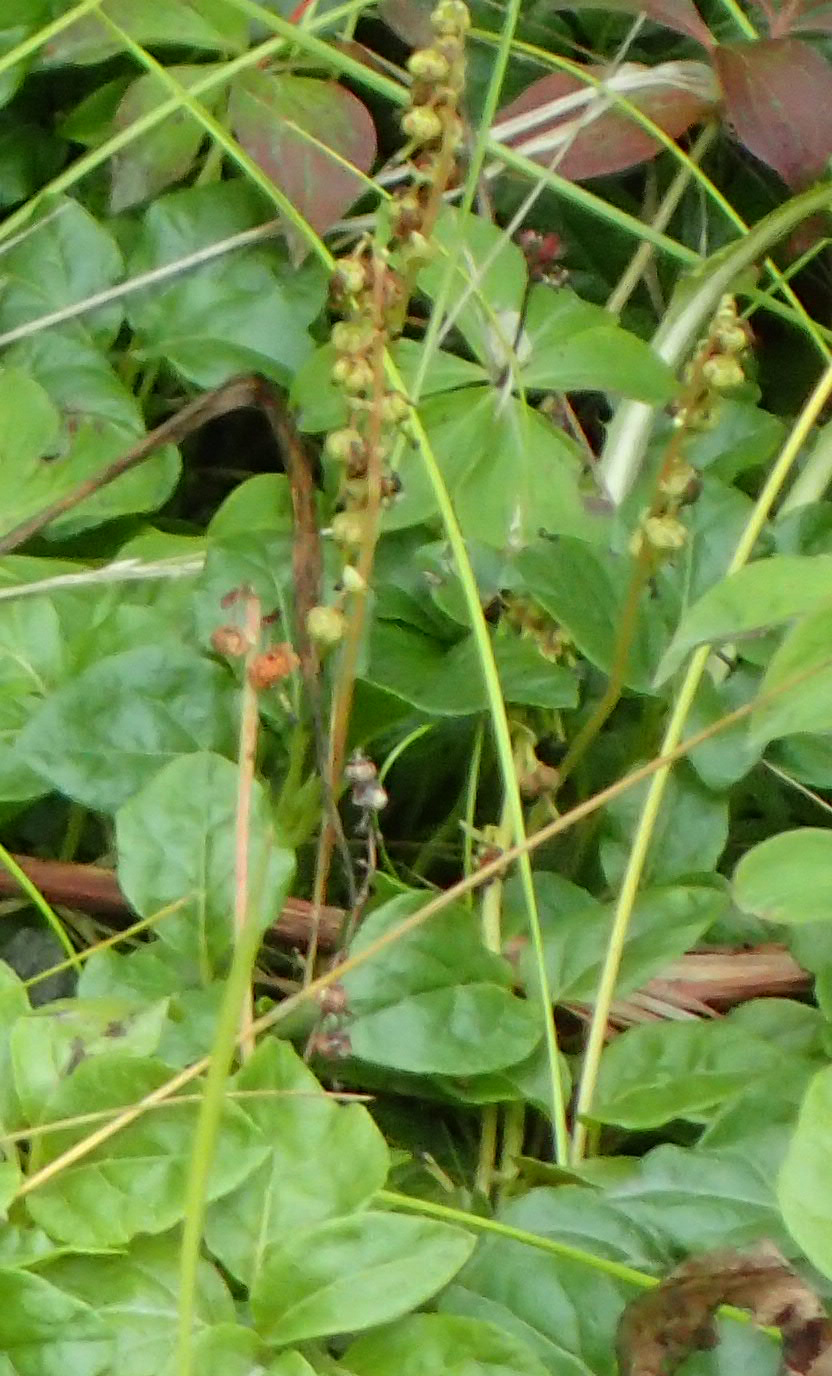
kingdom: Plantae
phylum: Tracheophyta
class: Magnoliopsida
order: Ericales
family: Ericaceae
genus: Orthilia
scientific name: Orthilia secunda
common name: One-sided orthilia
